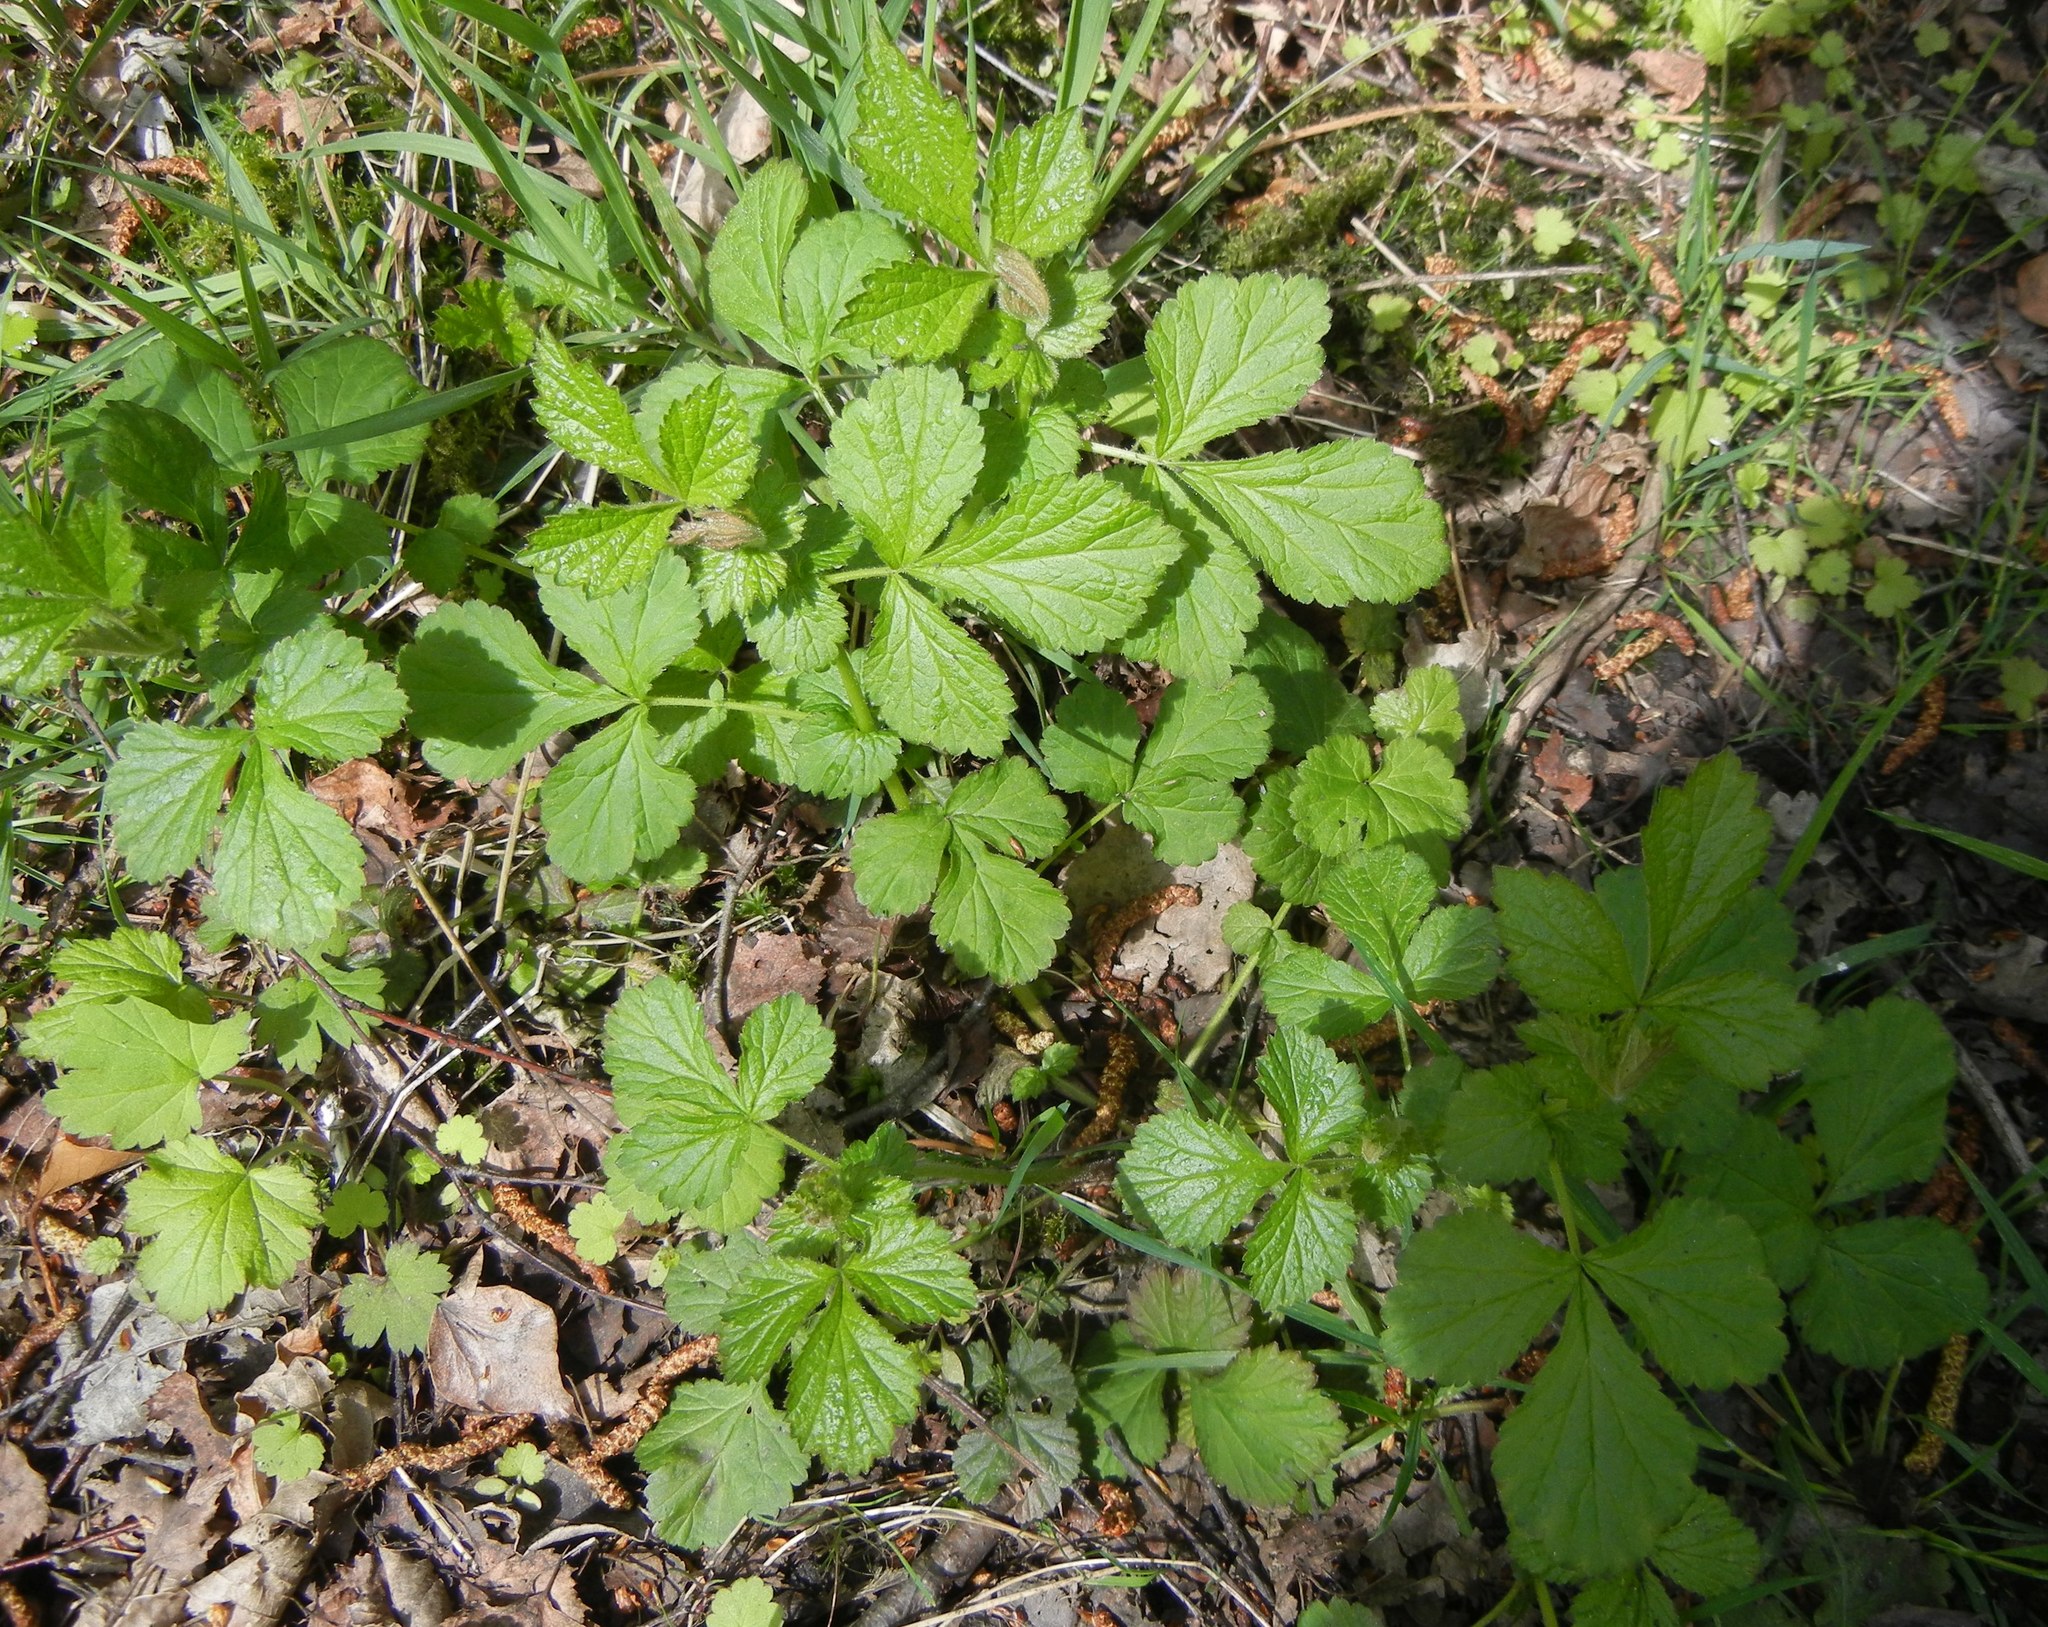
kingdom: Plantae
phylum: Tracheophyta
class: Magnoliopsida
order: Rosales
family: Rosaceae
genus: Geum
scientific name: Geum urbanum
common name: Wood avens
